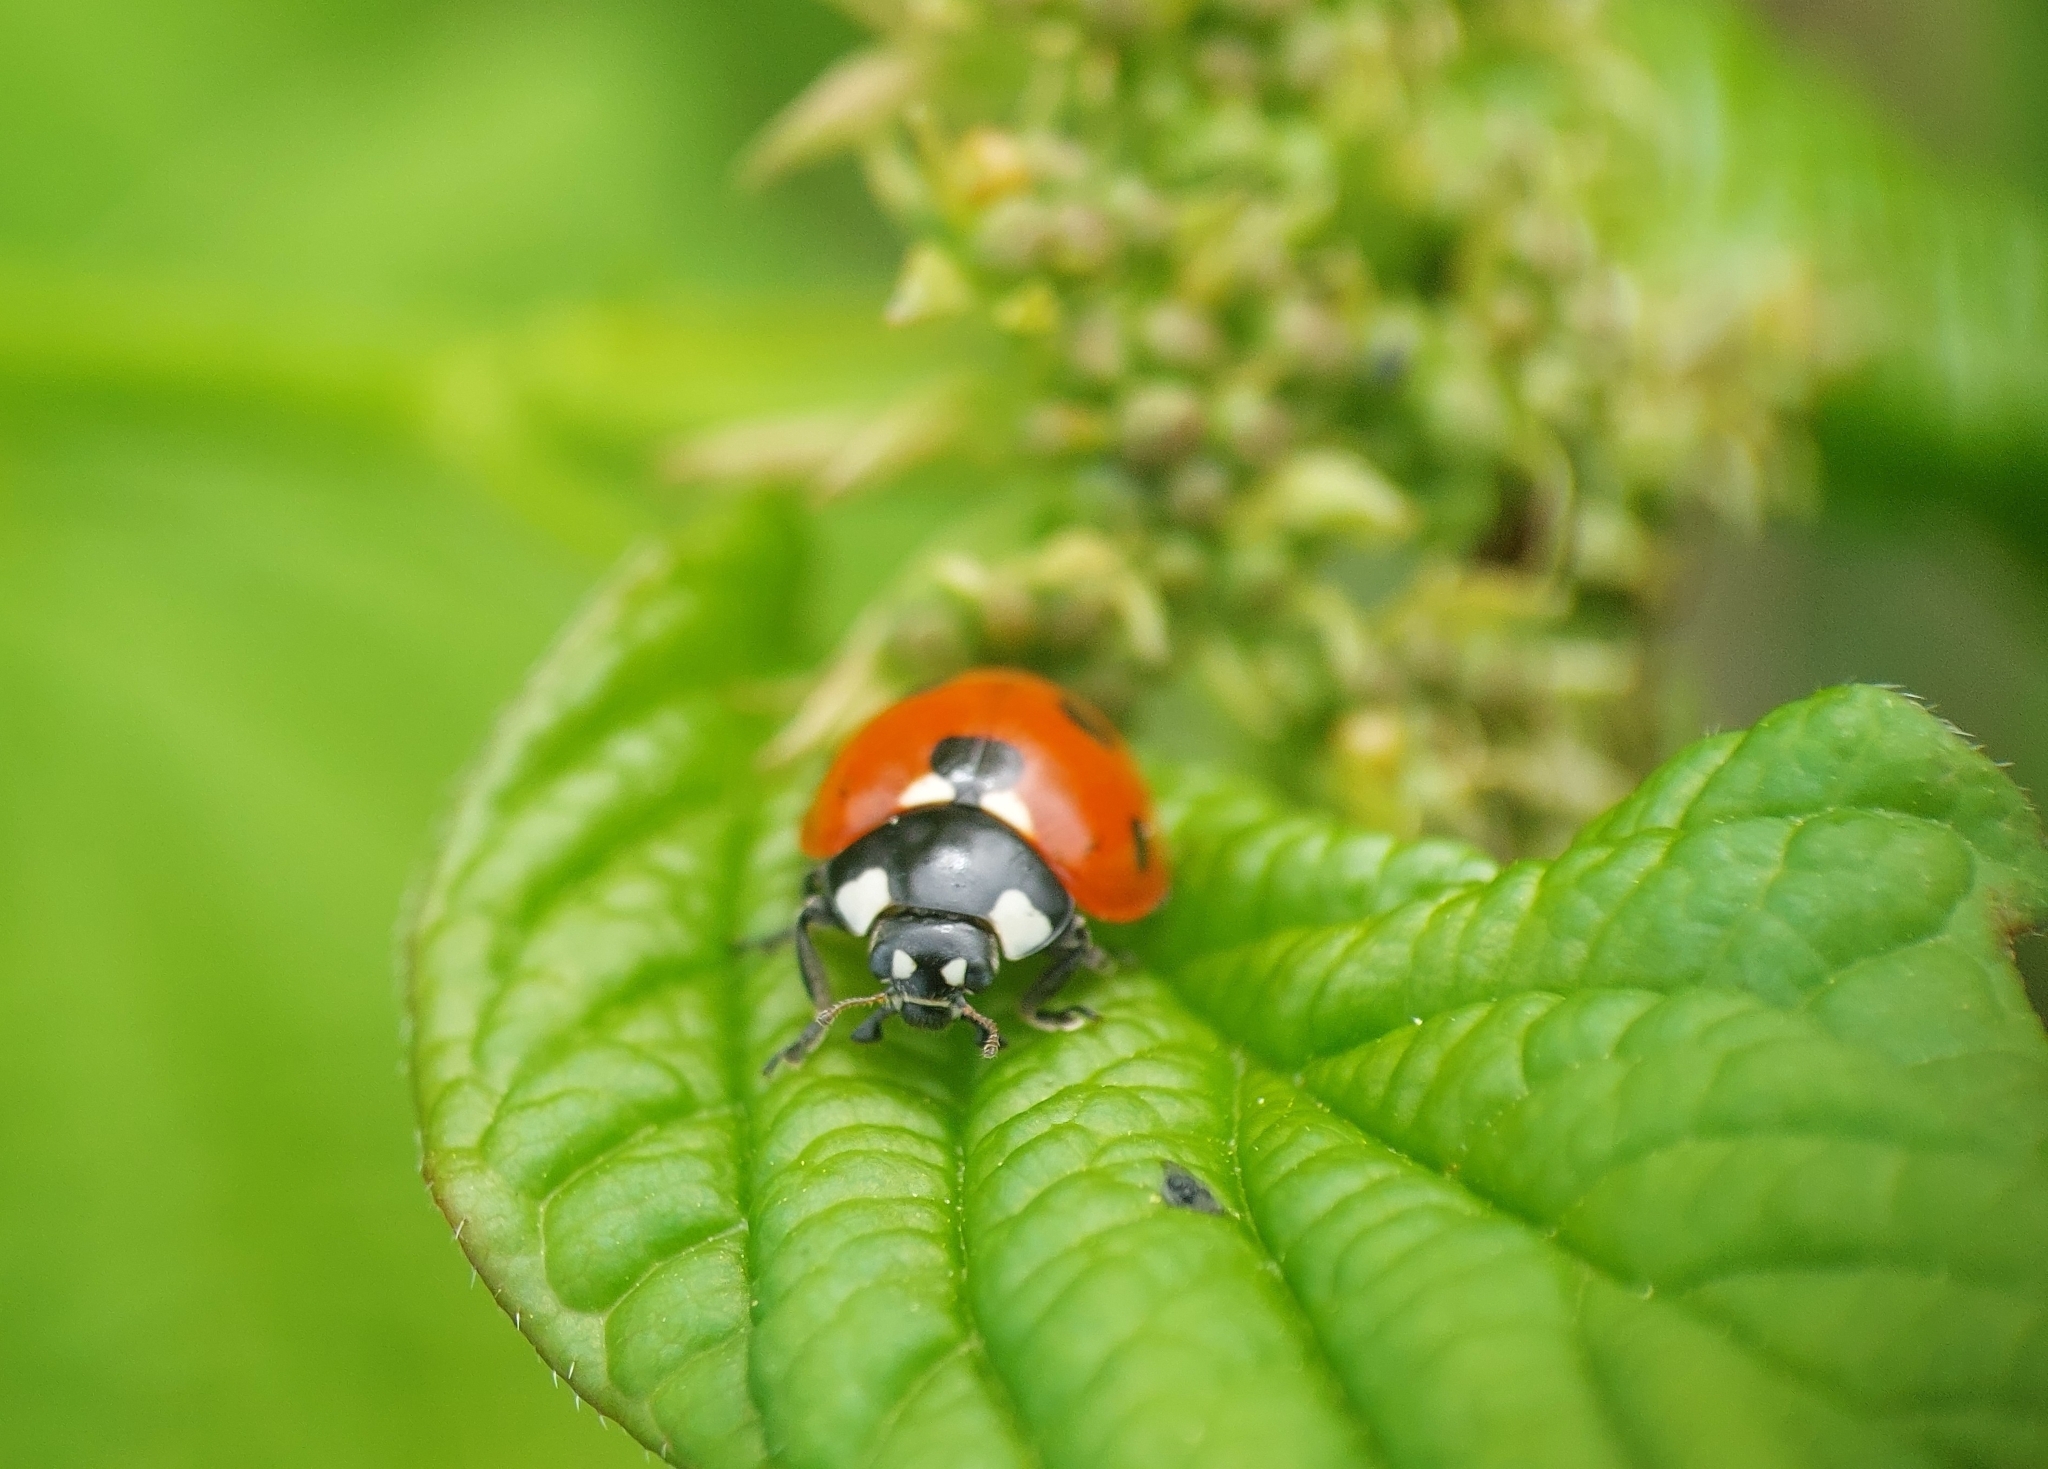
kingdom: Animalia
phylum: Arthropoda
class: Insecta
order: Coleoptera
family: Coccinellidae
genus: Coccinella
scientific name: Coccinella septempunctata
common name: Sevenspotted lady beetle
